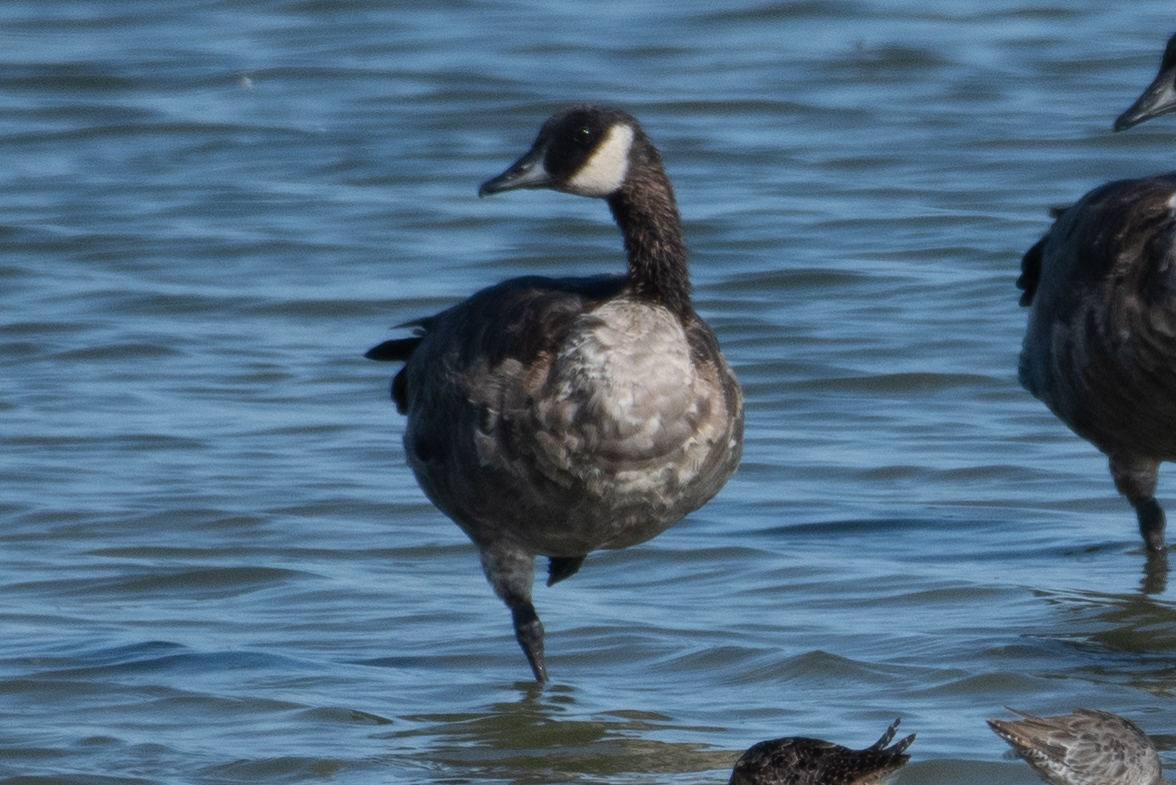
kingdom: Animalia
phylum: Chordata
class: Aves
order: Anseriformes
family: Anatidae
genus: Branta
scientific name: Branta canadensis
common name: Canada goose
